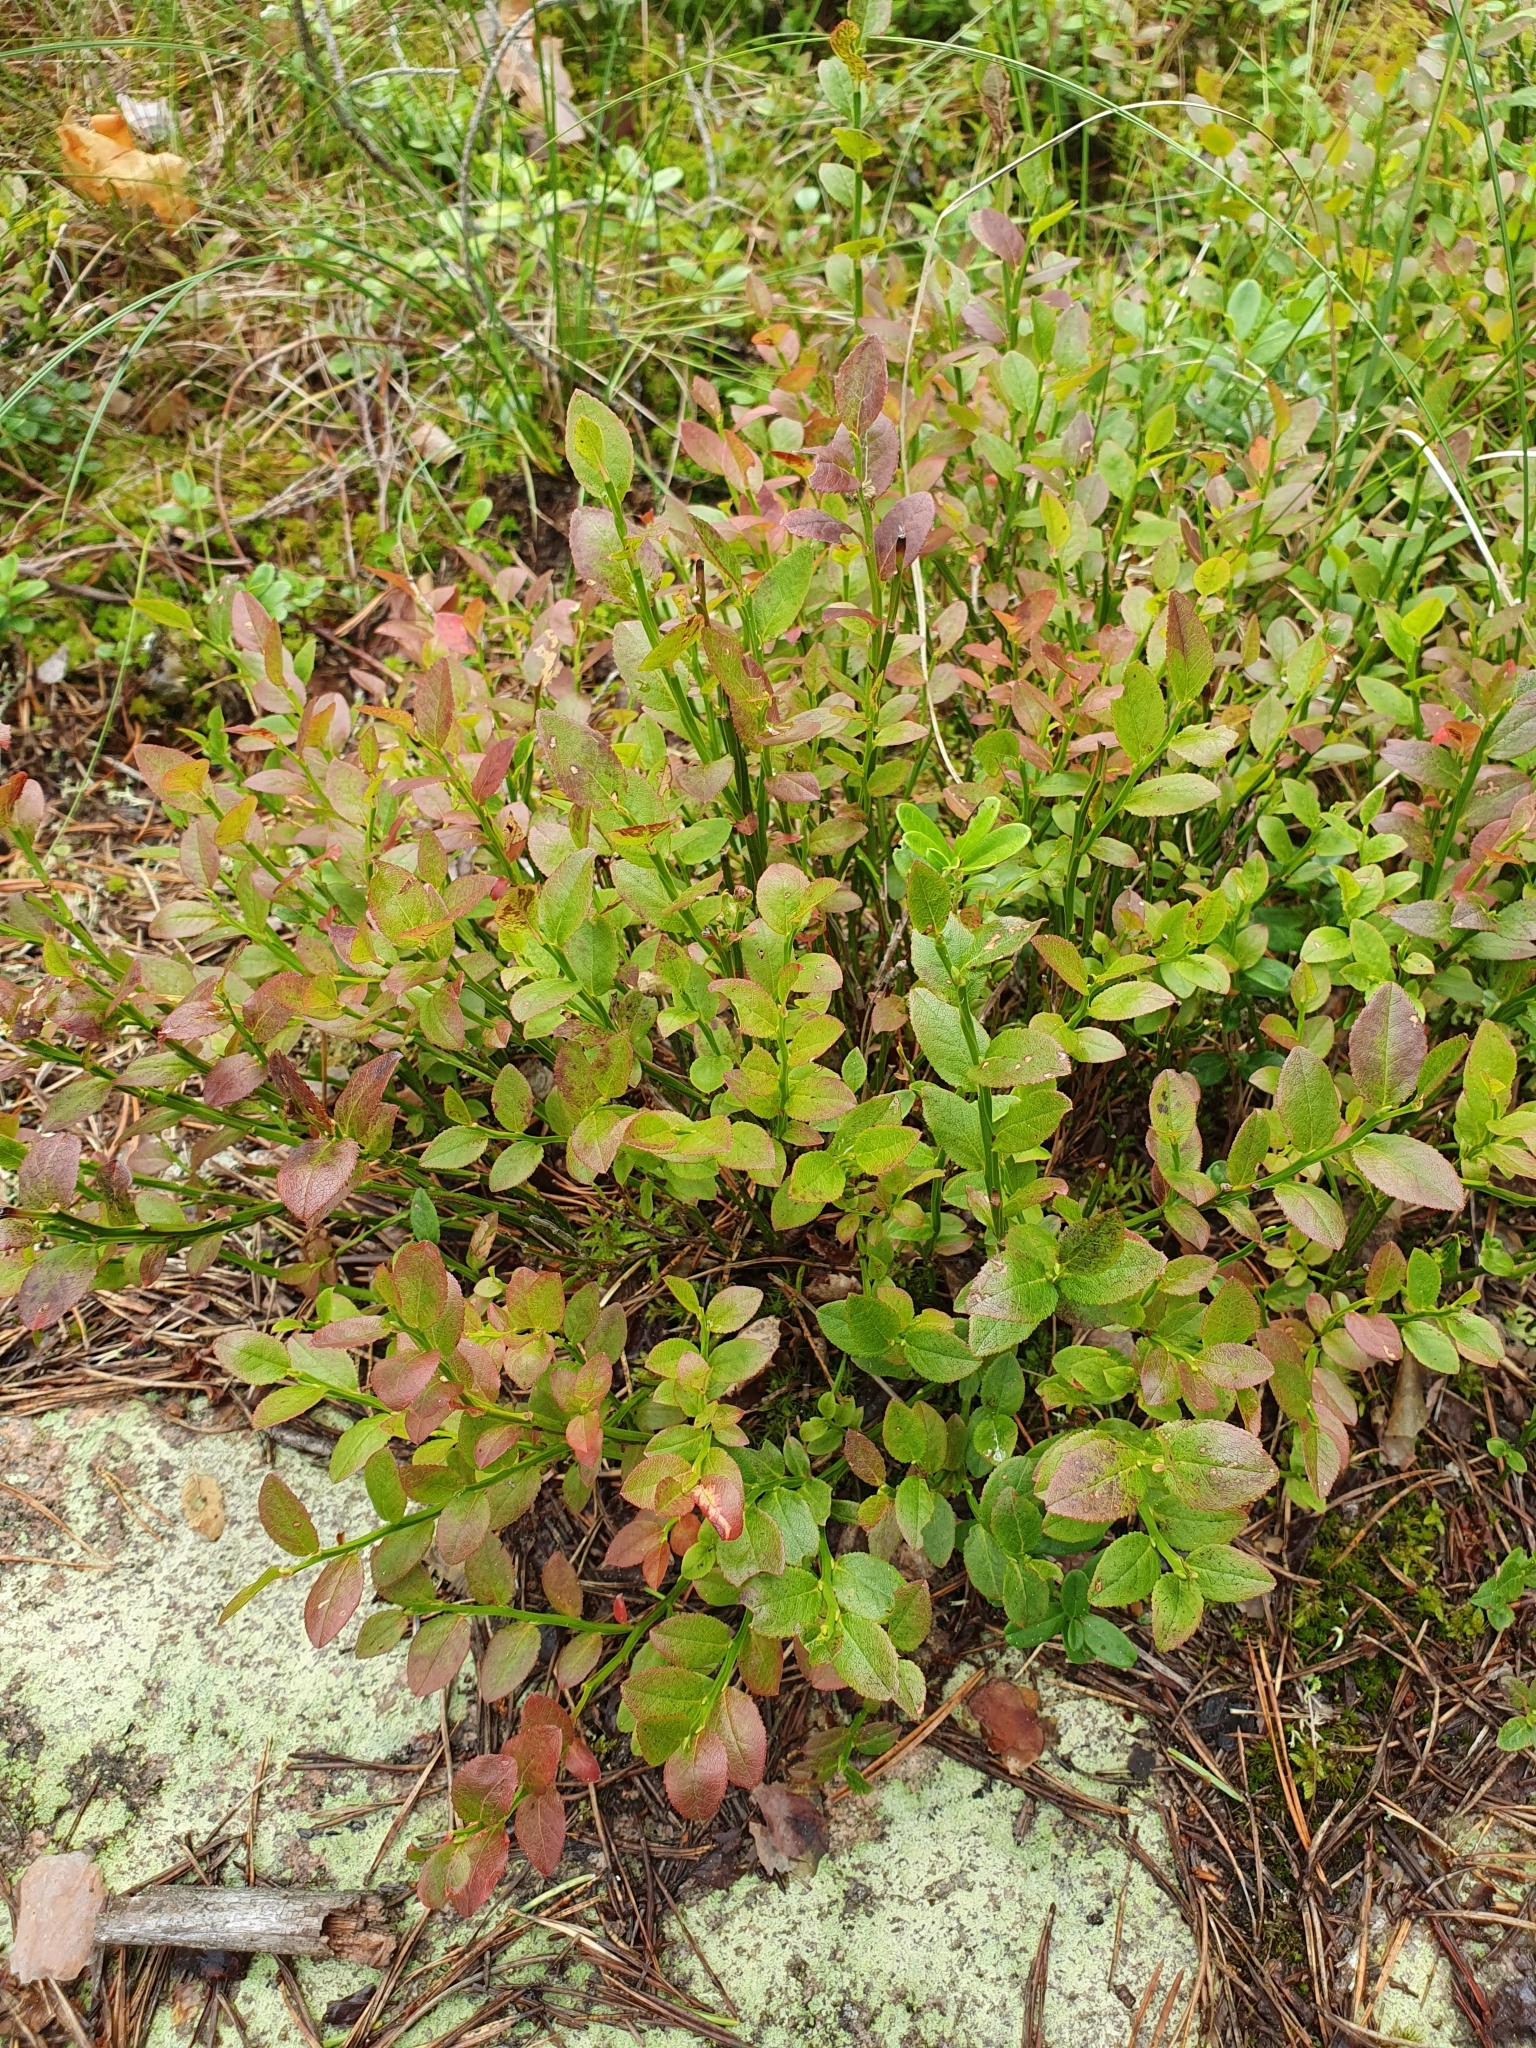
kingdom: Plantae
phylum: Tracheophyta
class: Magnoliopsida
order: Ericales
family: Ericaceae
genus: Vaccinium
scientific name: Vaccinium myrtillus
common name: Bilberry
